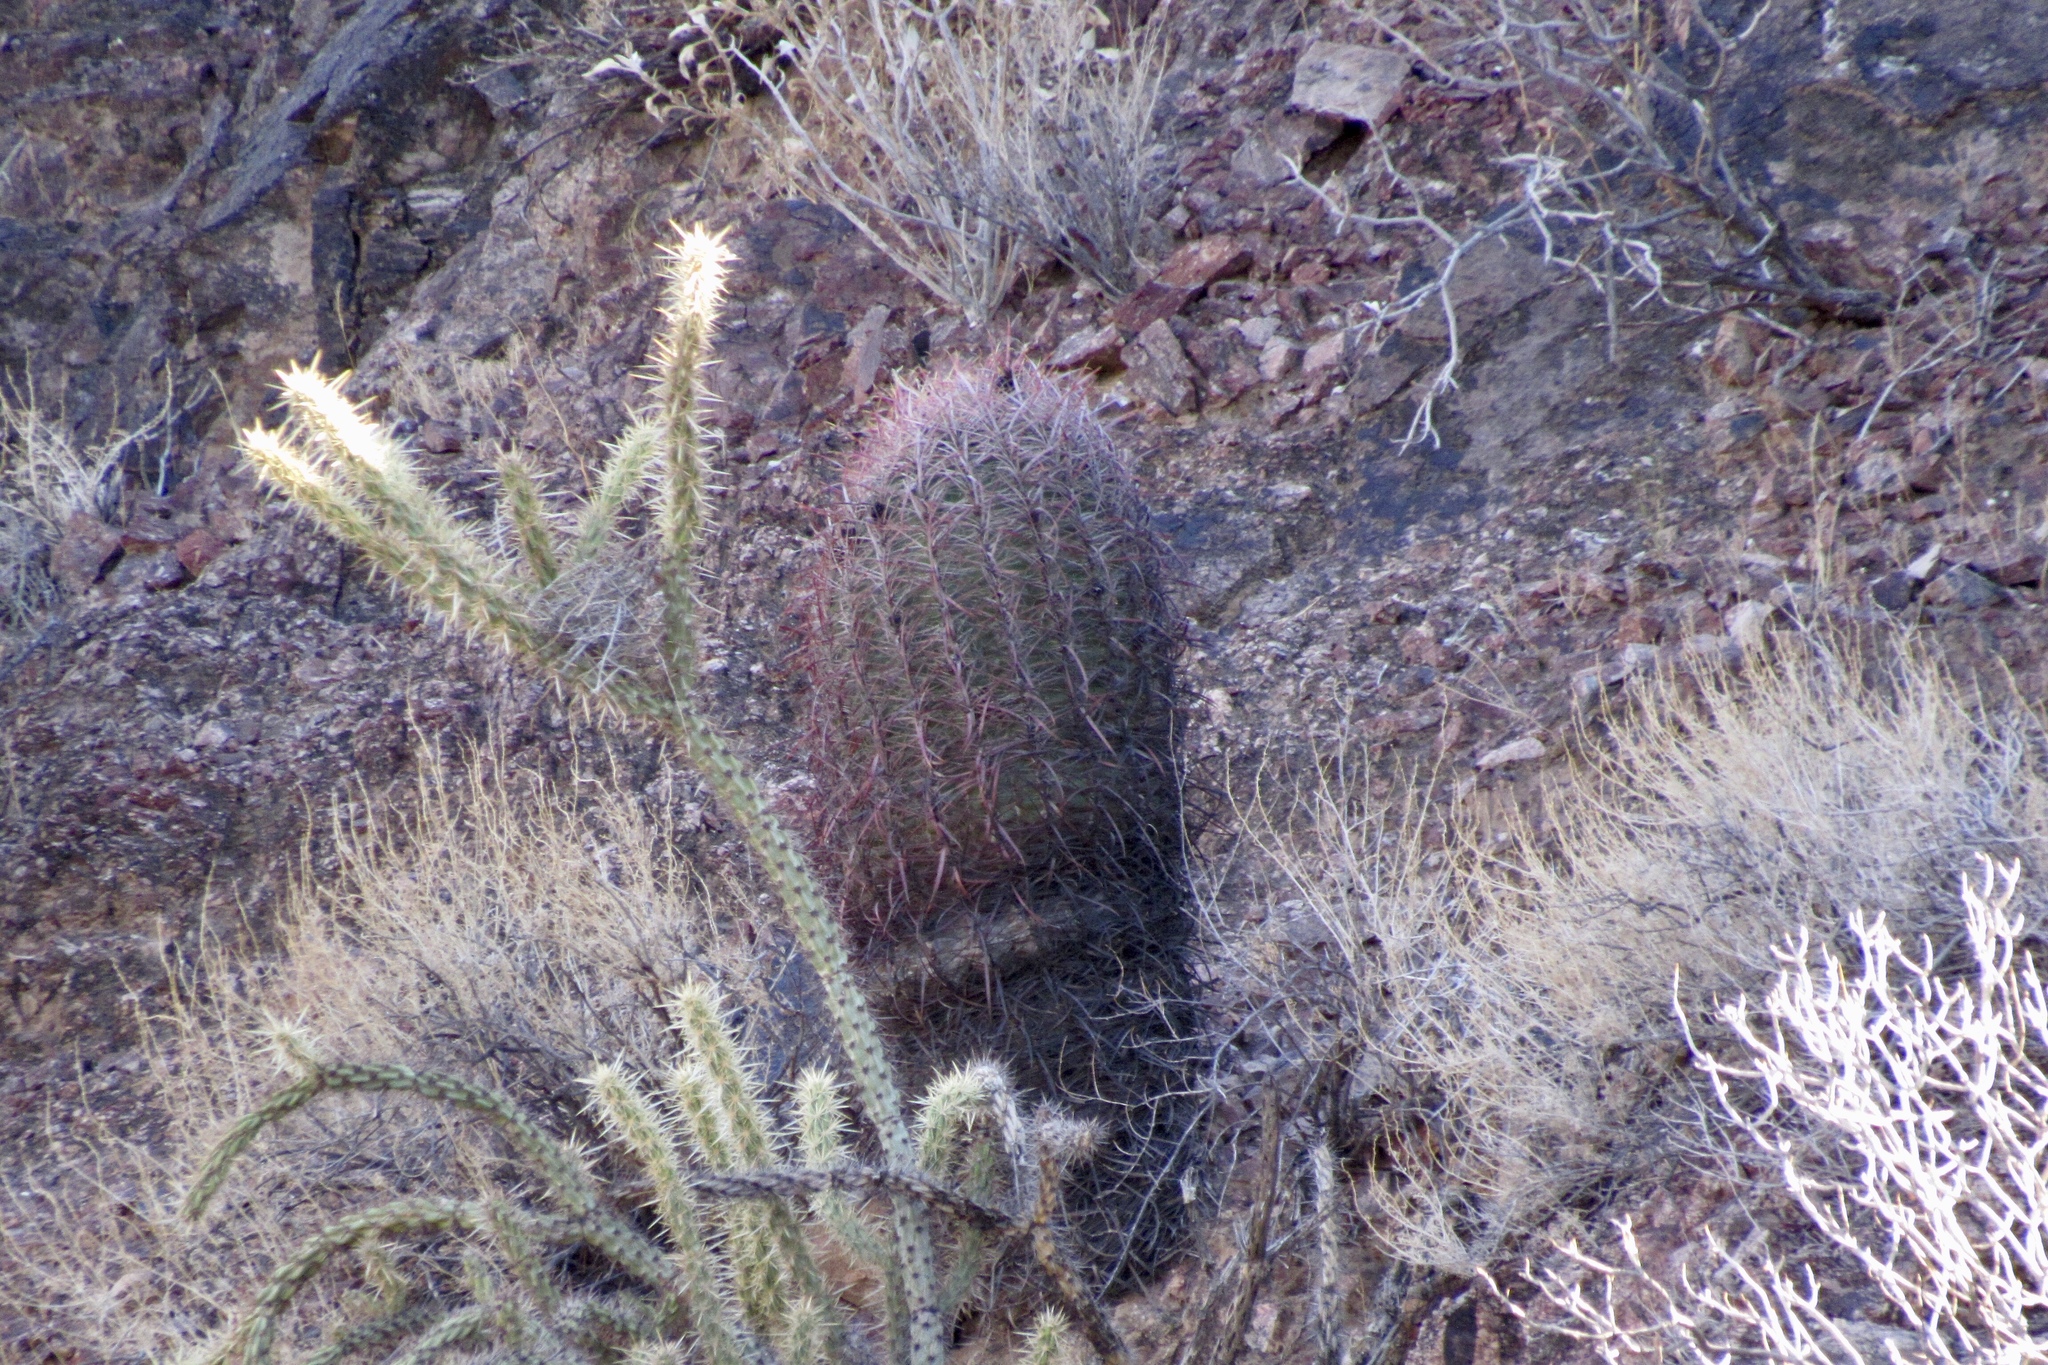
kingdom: Plantae
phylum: Tracheophyta
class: Magnoliopsida
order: Caryophyllales
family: Cactaceae
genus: Ferocactus
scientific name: Ferocactus cylindraceus
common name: California barrel cactus
